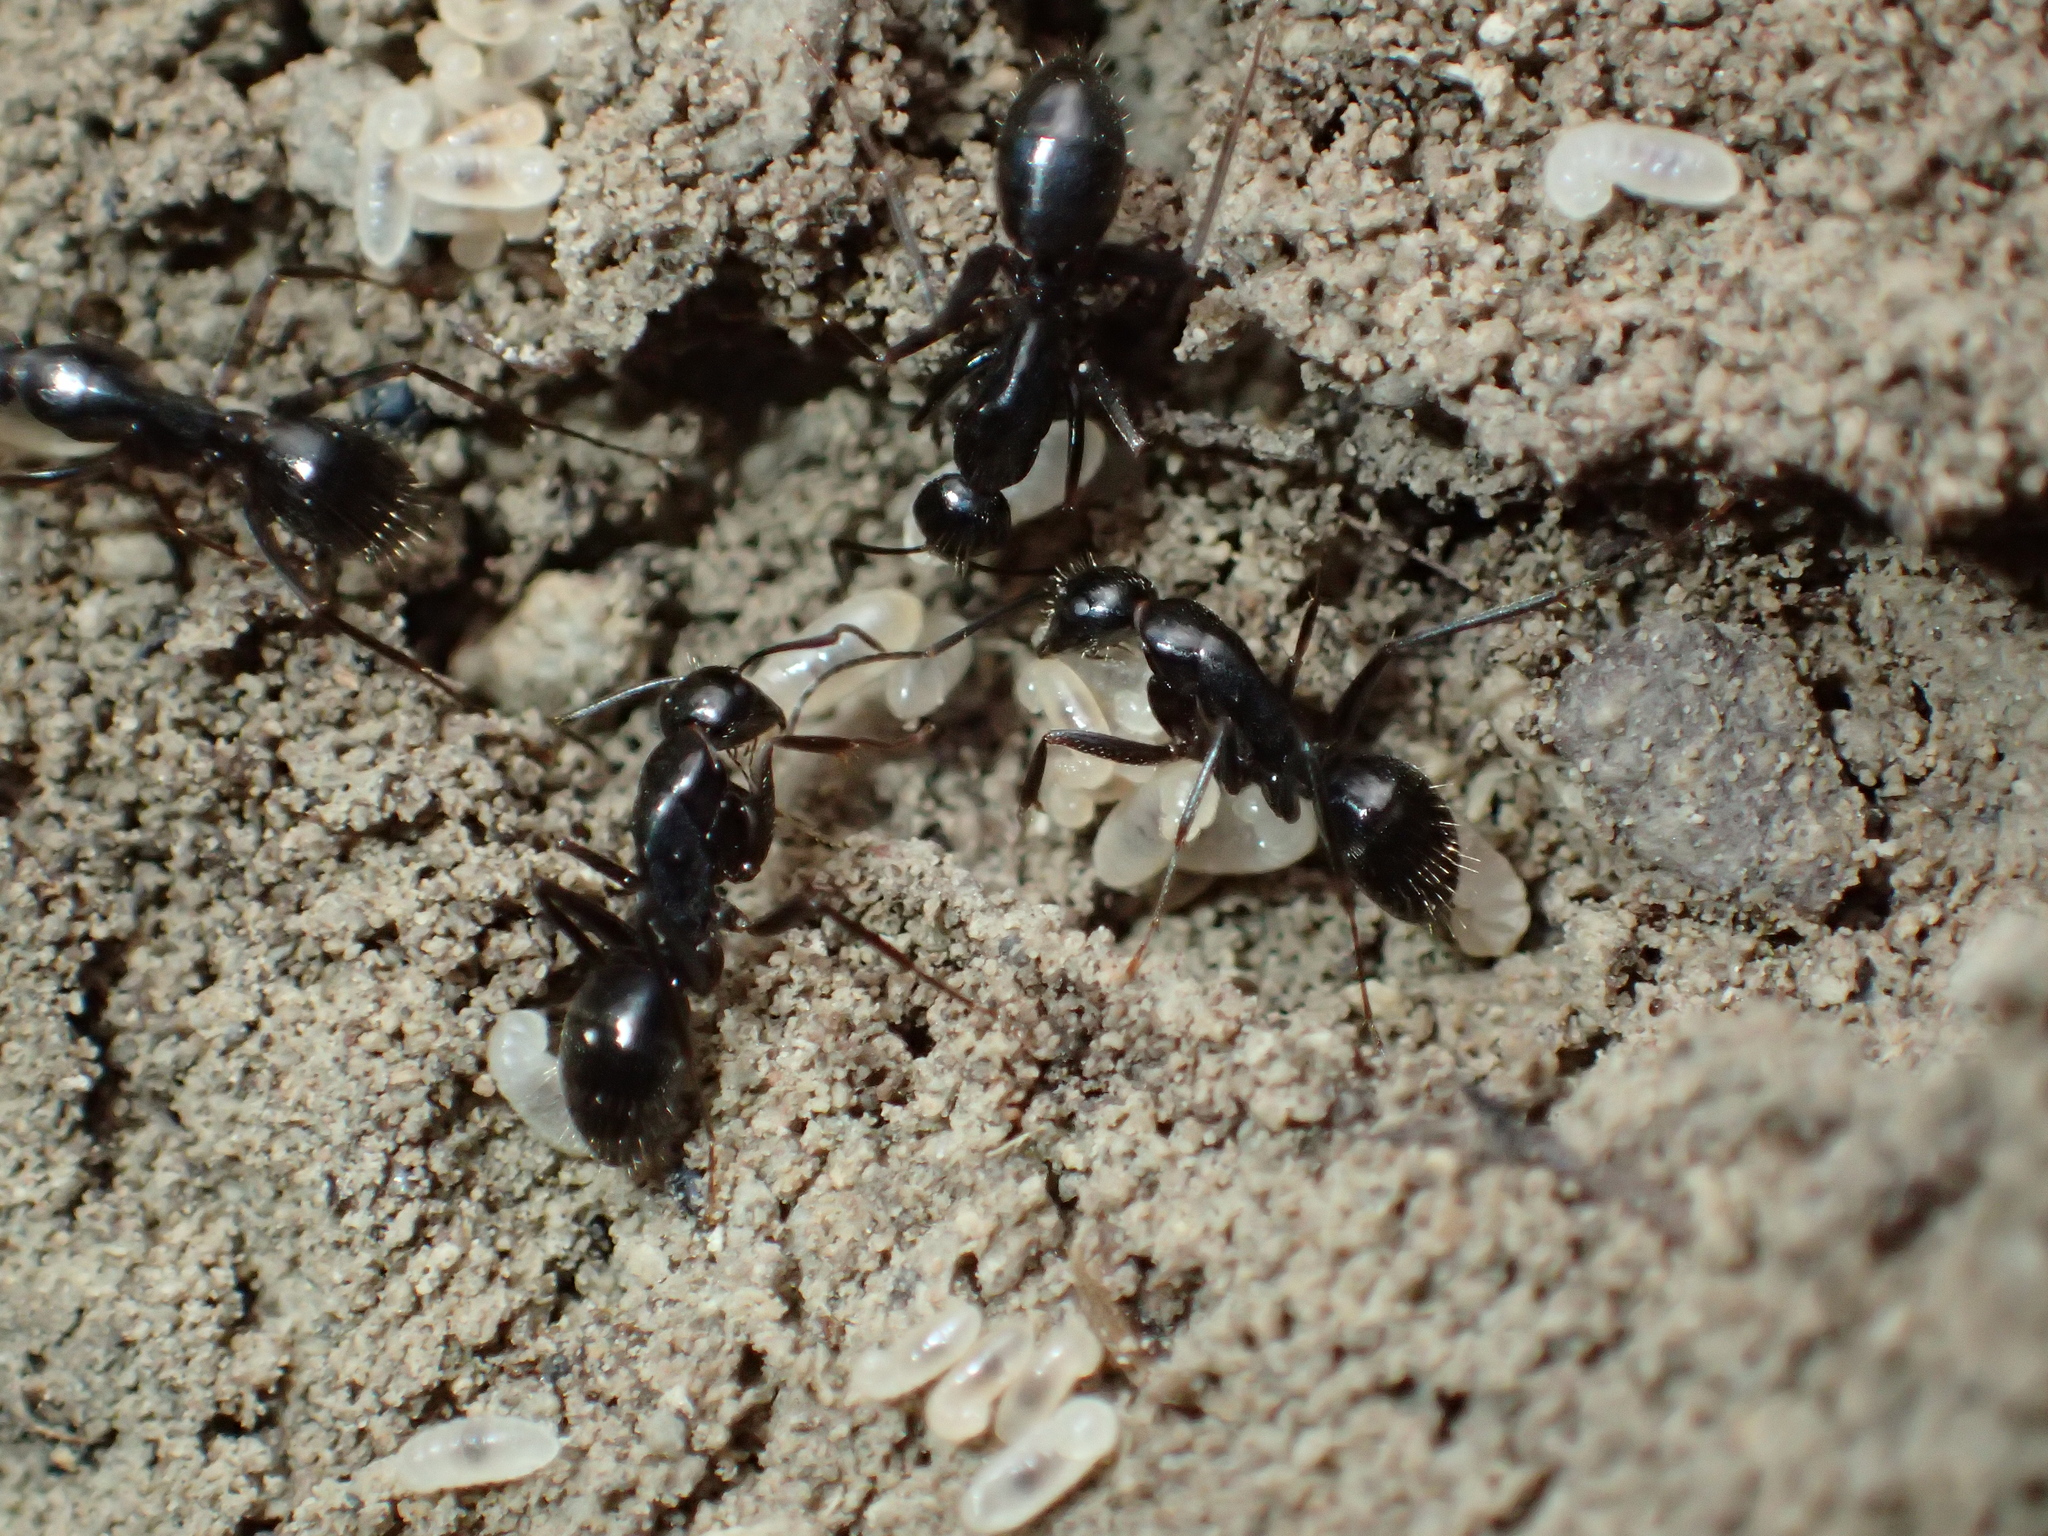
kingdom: Animalia
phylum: Arthropoda
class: Insecta
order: Hymenoptera
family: Formicidae
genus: Camponotus
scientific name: Camponotus aethiops
